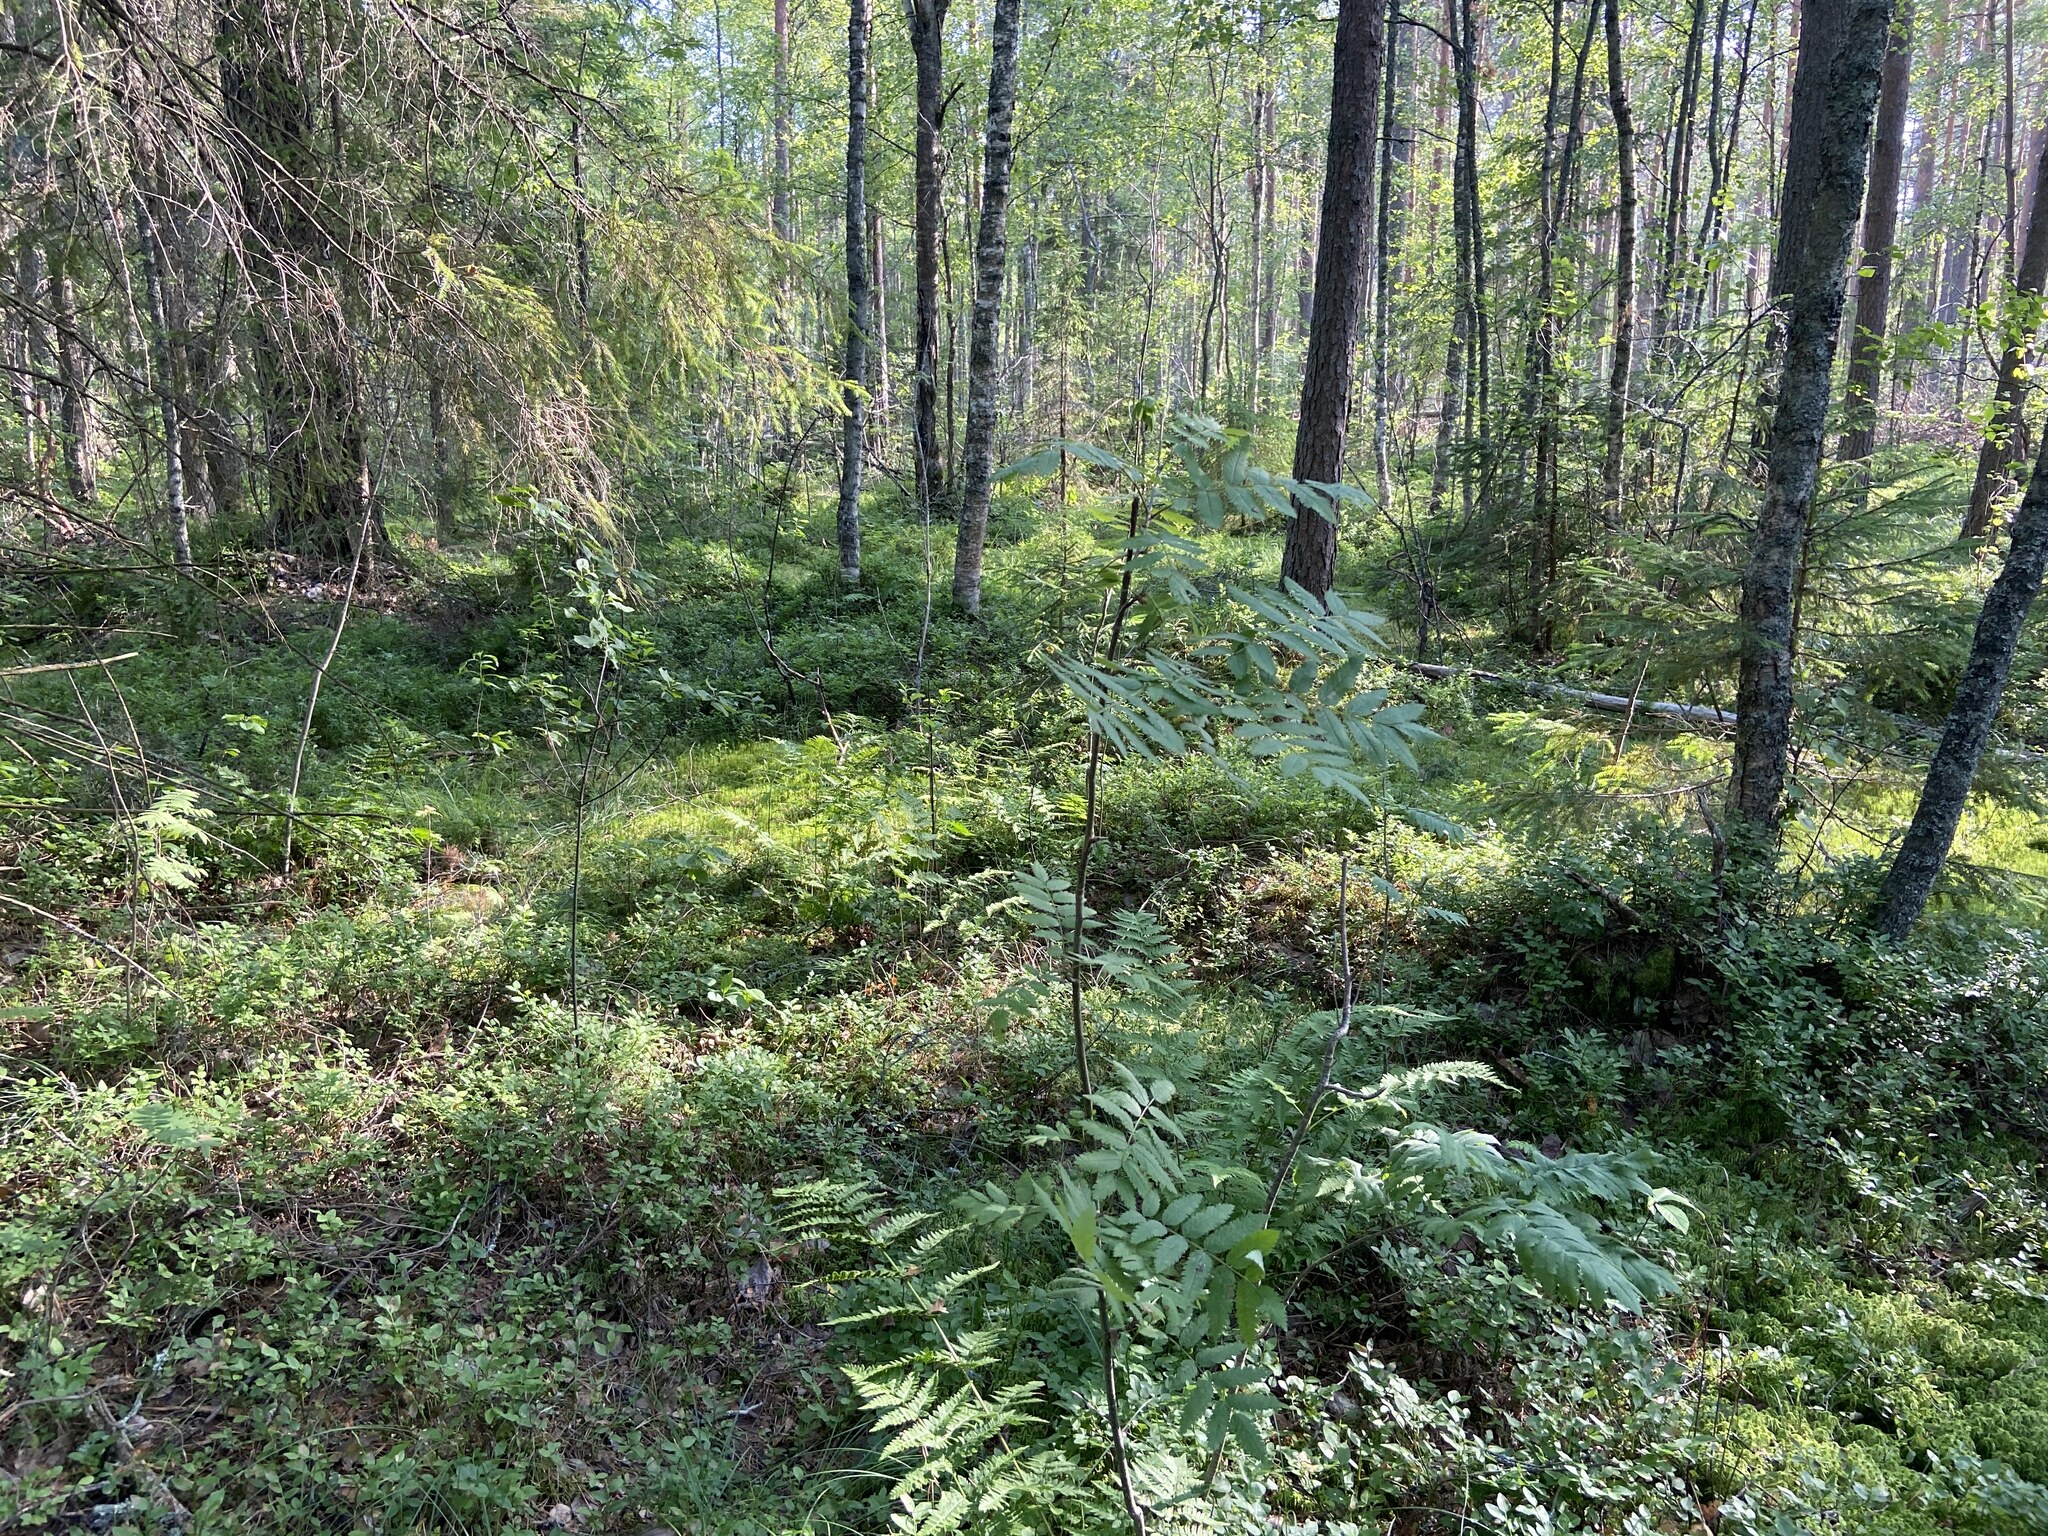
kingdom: Plantae
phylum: Tracheophyta
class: Magnoliopsida
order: Rosales
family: Rosaceae
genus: Sorbus
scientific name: Sorbus aucuparia
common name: Rowan
